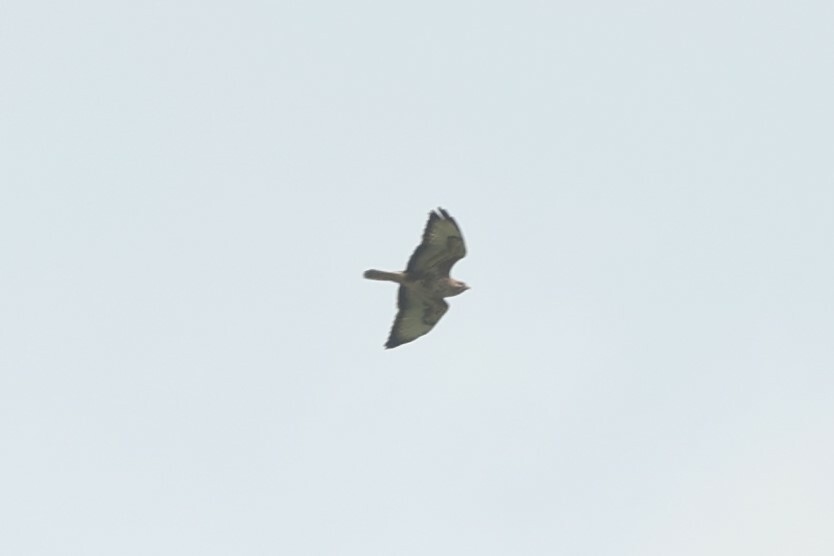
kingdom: Animalia
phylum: Chordata
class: Aves
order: Accipitriformes
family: Accipitridae
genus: Buteo
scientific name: Buteo buteo
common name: Common buzzard
